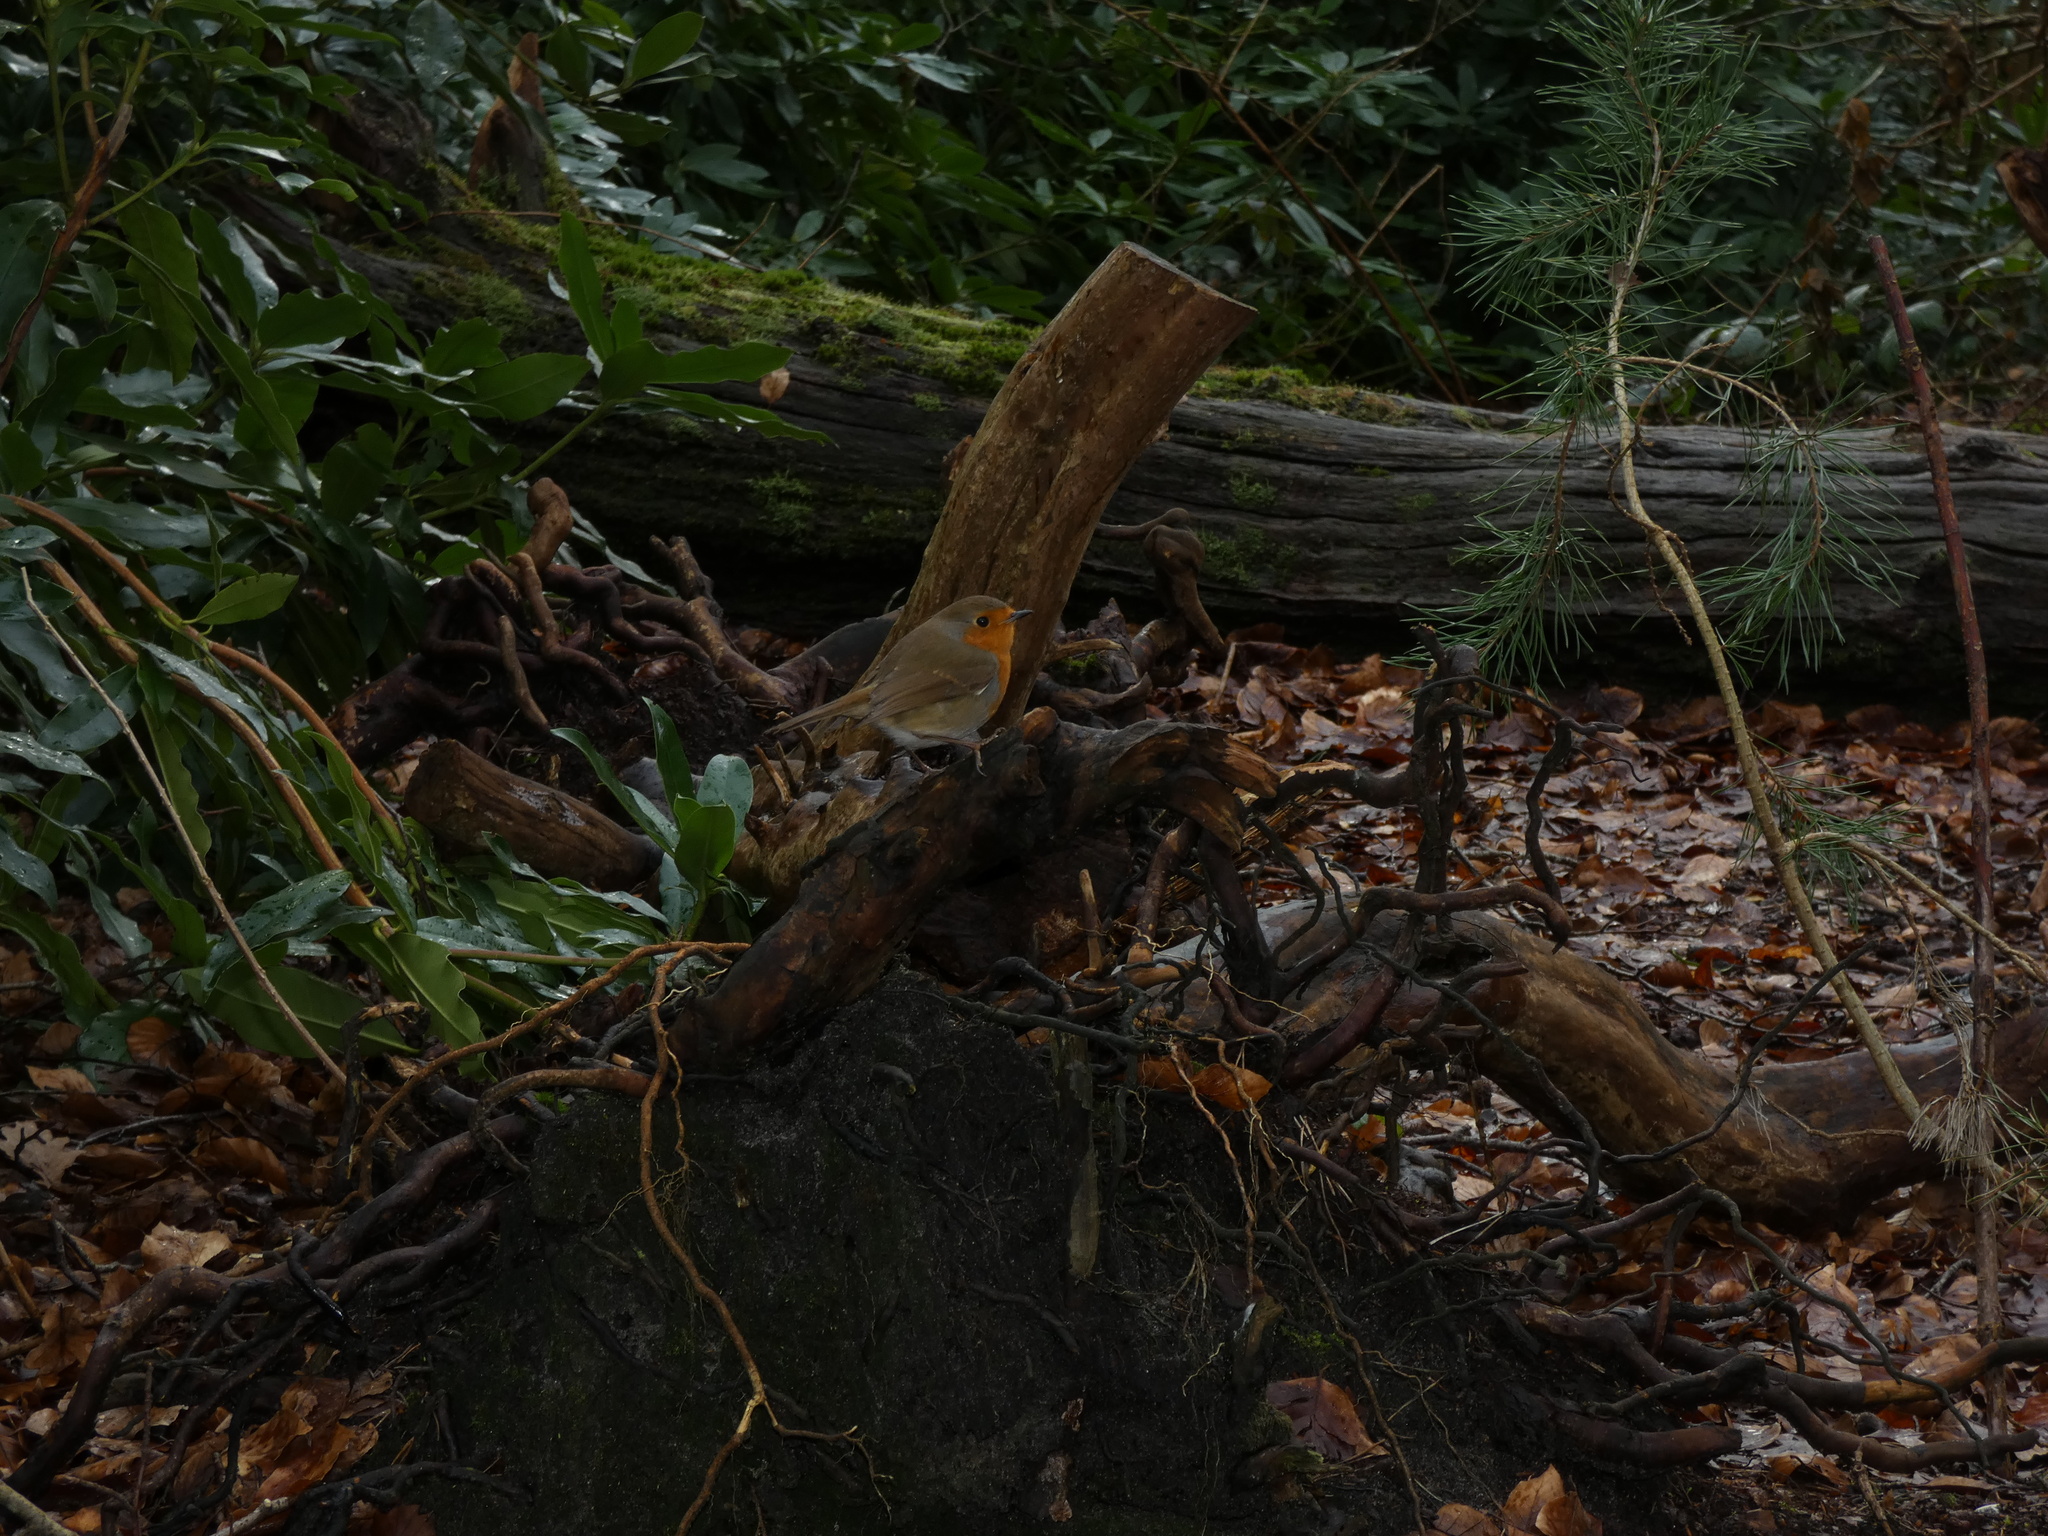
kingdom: Animalia
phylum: Chordata
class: Aves
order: Passeriformes
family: Muscicapidae
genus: Erithacus
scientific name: Erithacus rubecula
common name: European robin
